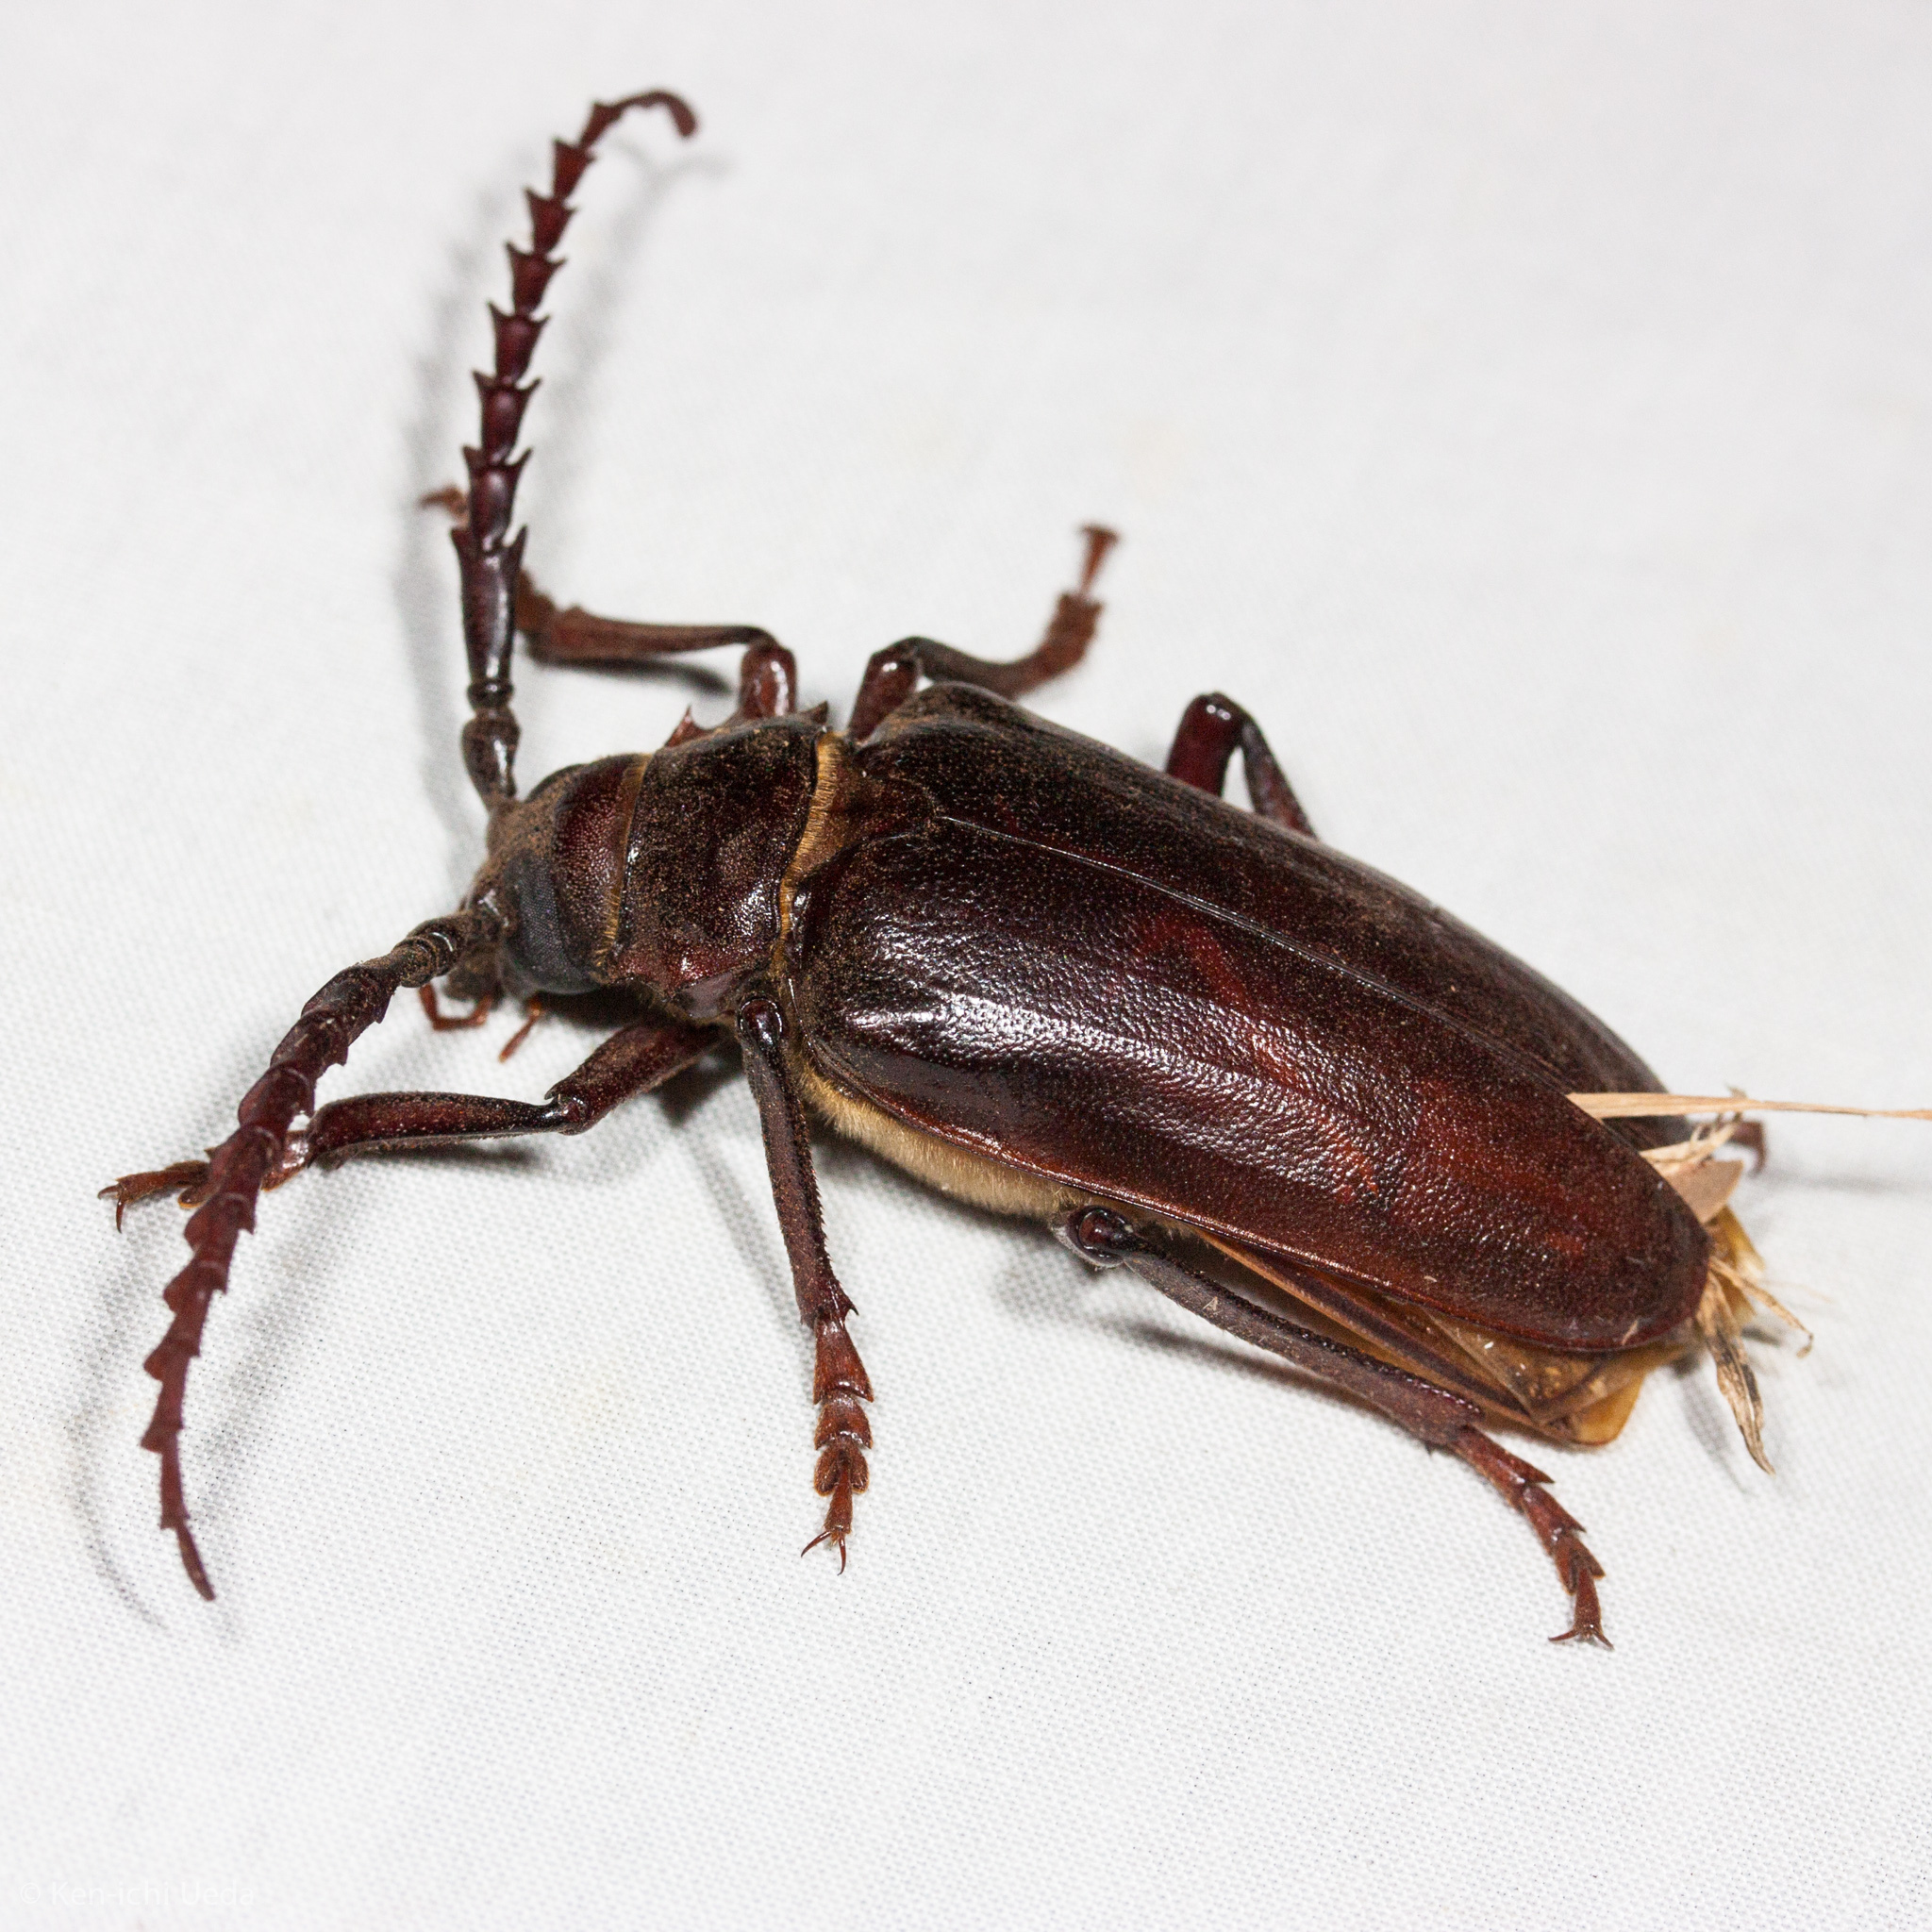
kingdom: Animalia
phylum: Arthropoda
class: Insecta
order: Coleoptera
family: Cerambycidae
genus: Prionus
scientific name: Prionus californicus
